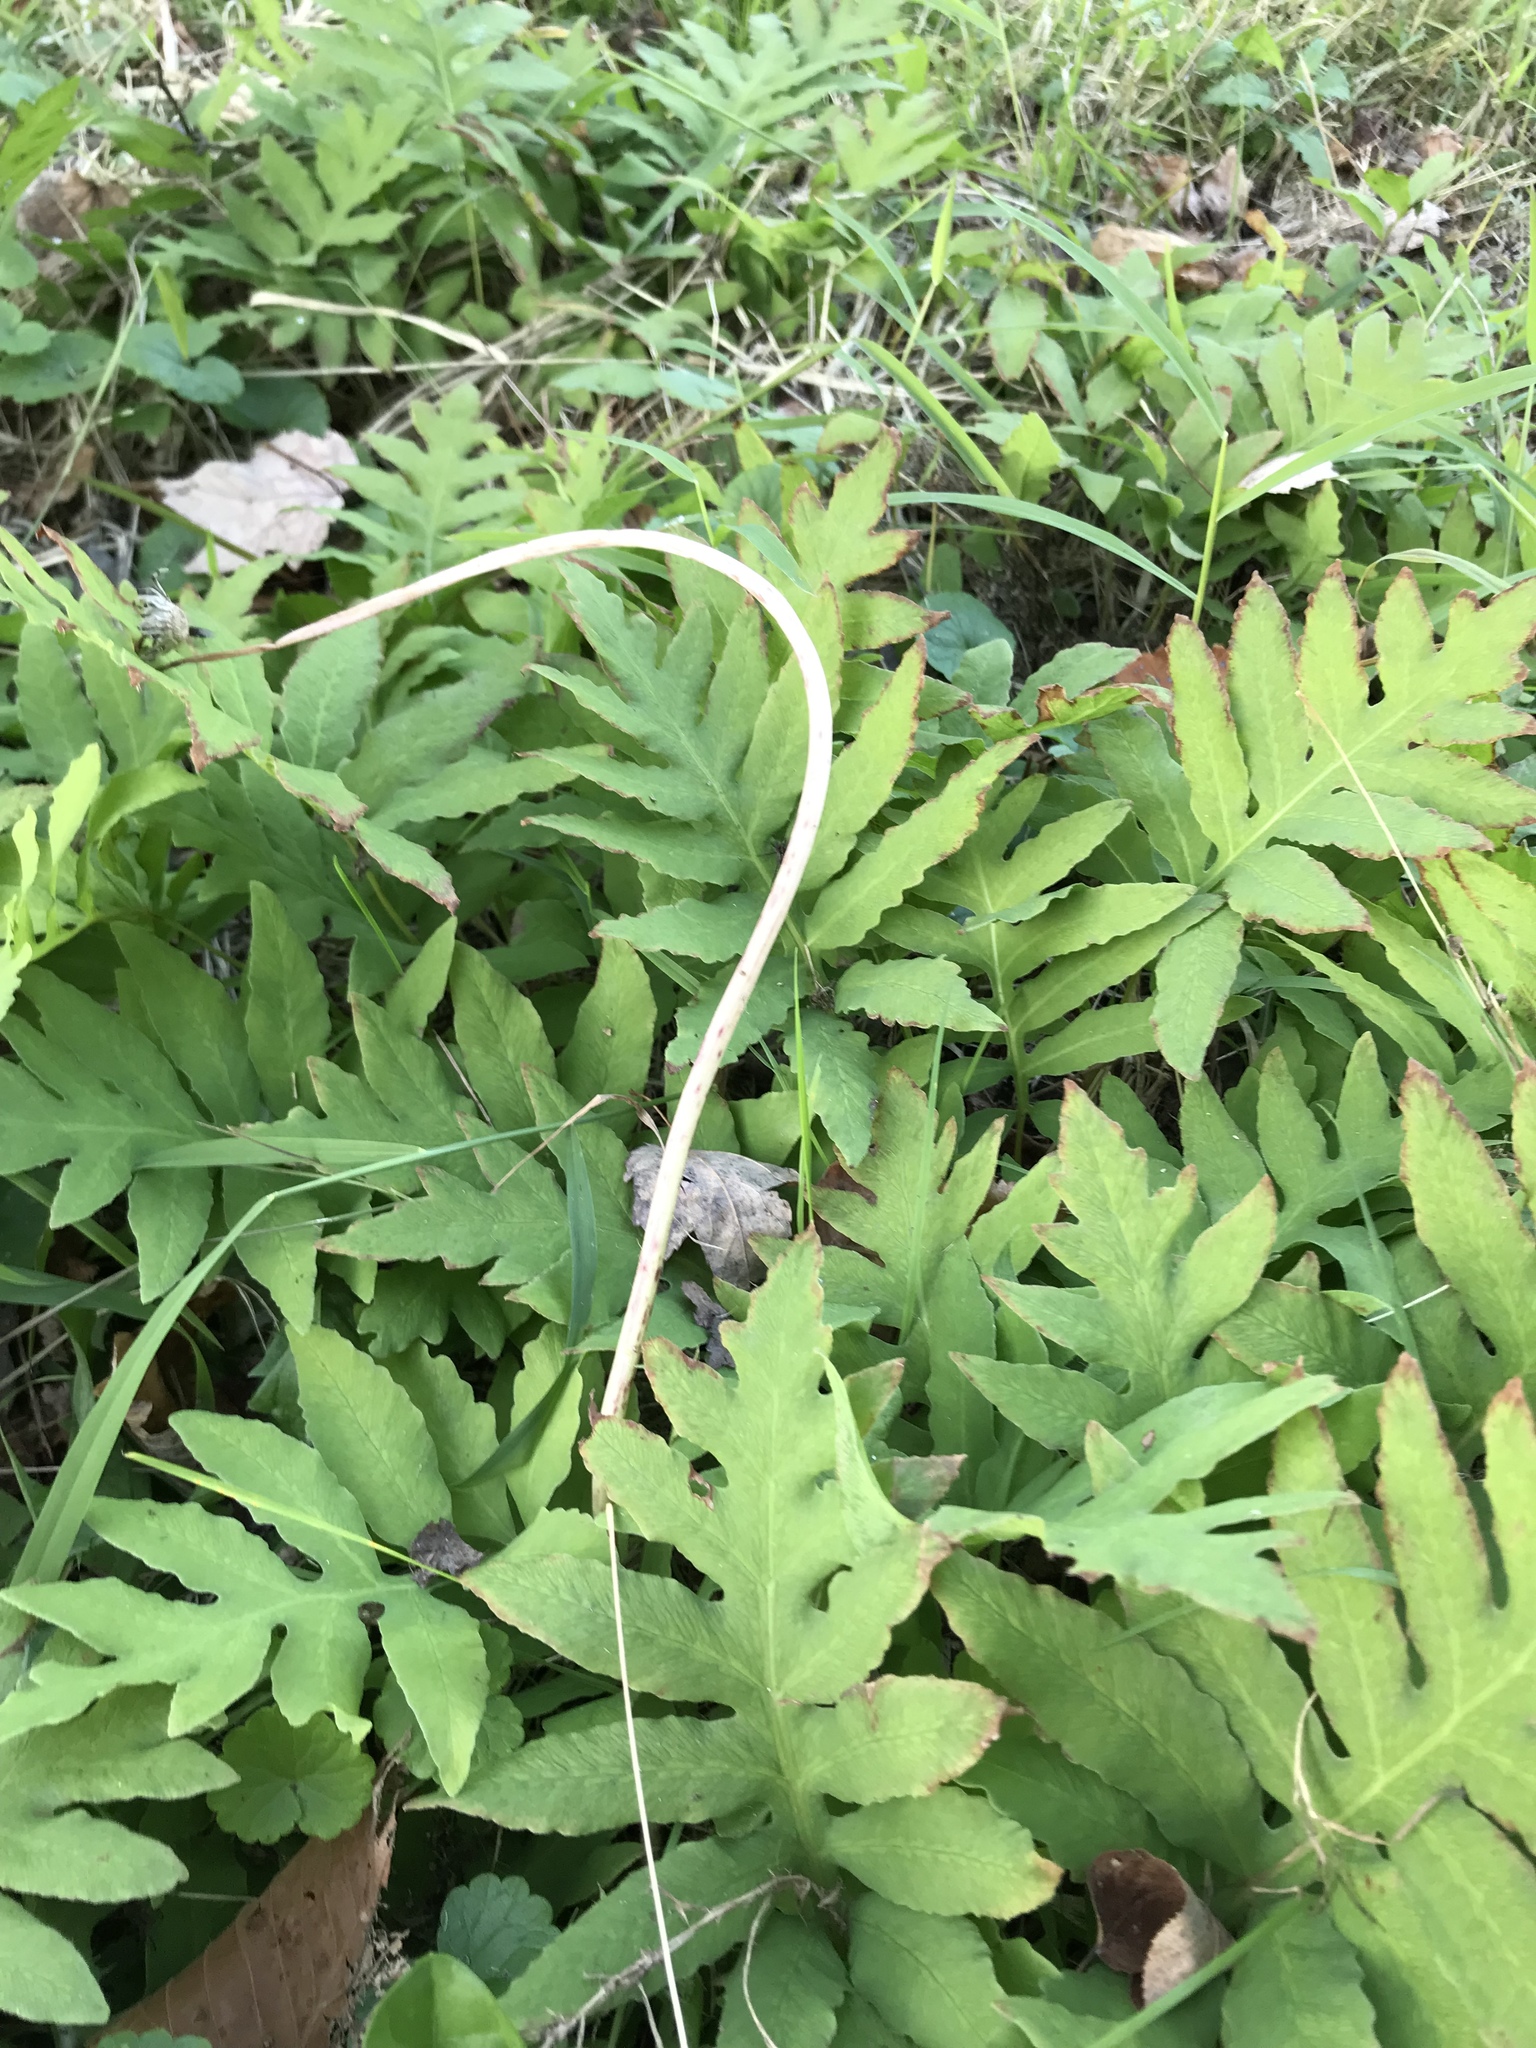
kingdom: Plantae
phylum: Tracheophyta
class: Polypodiopsida
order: Polypodiales
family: Onocleaceae
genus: Onoclea
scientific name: Onoclea sensibilis
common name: Sensitive fern
